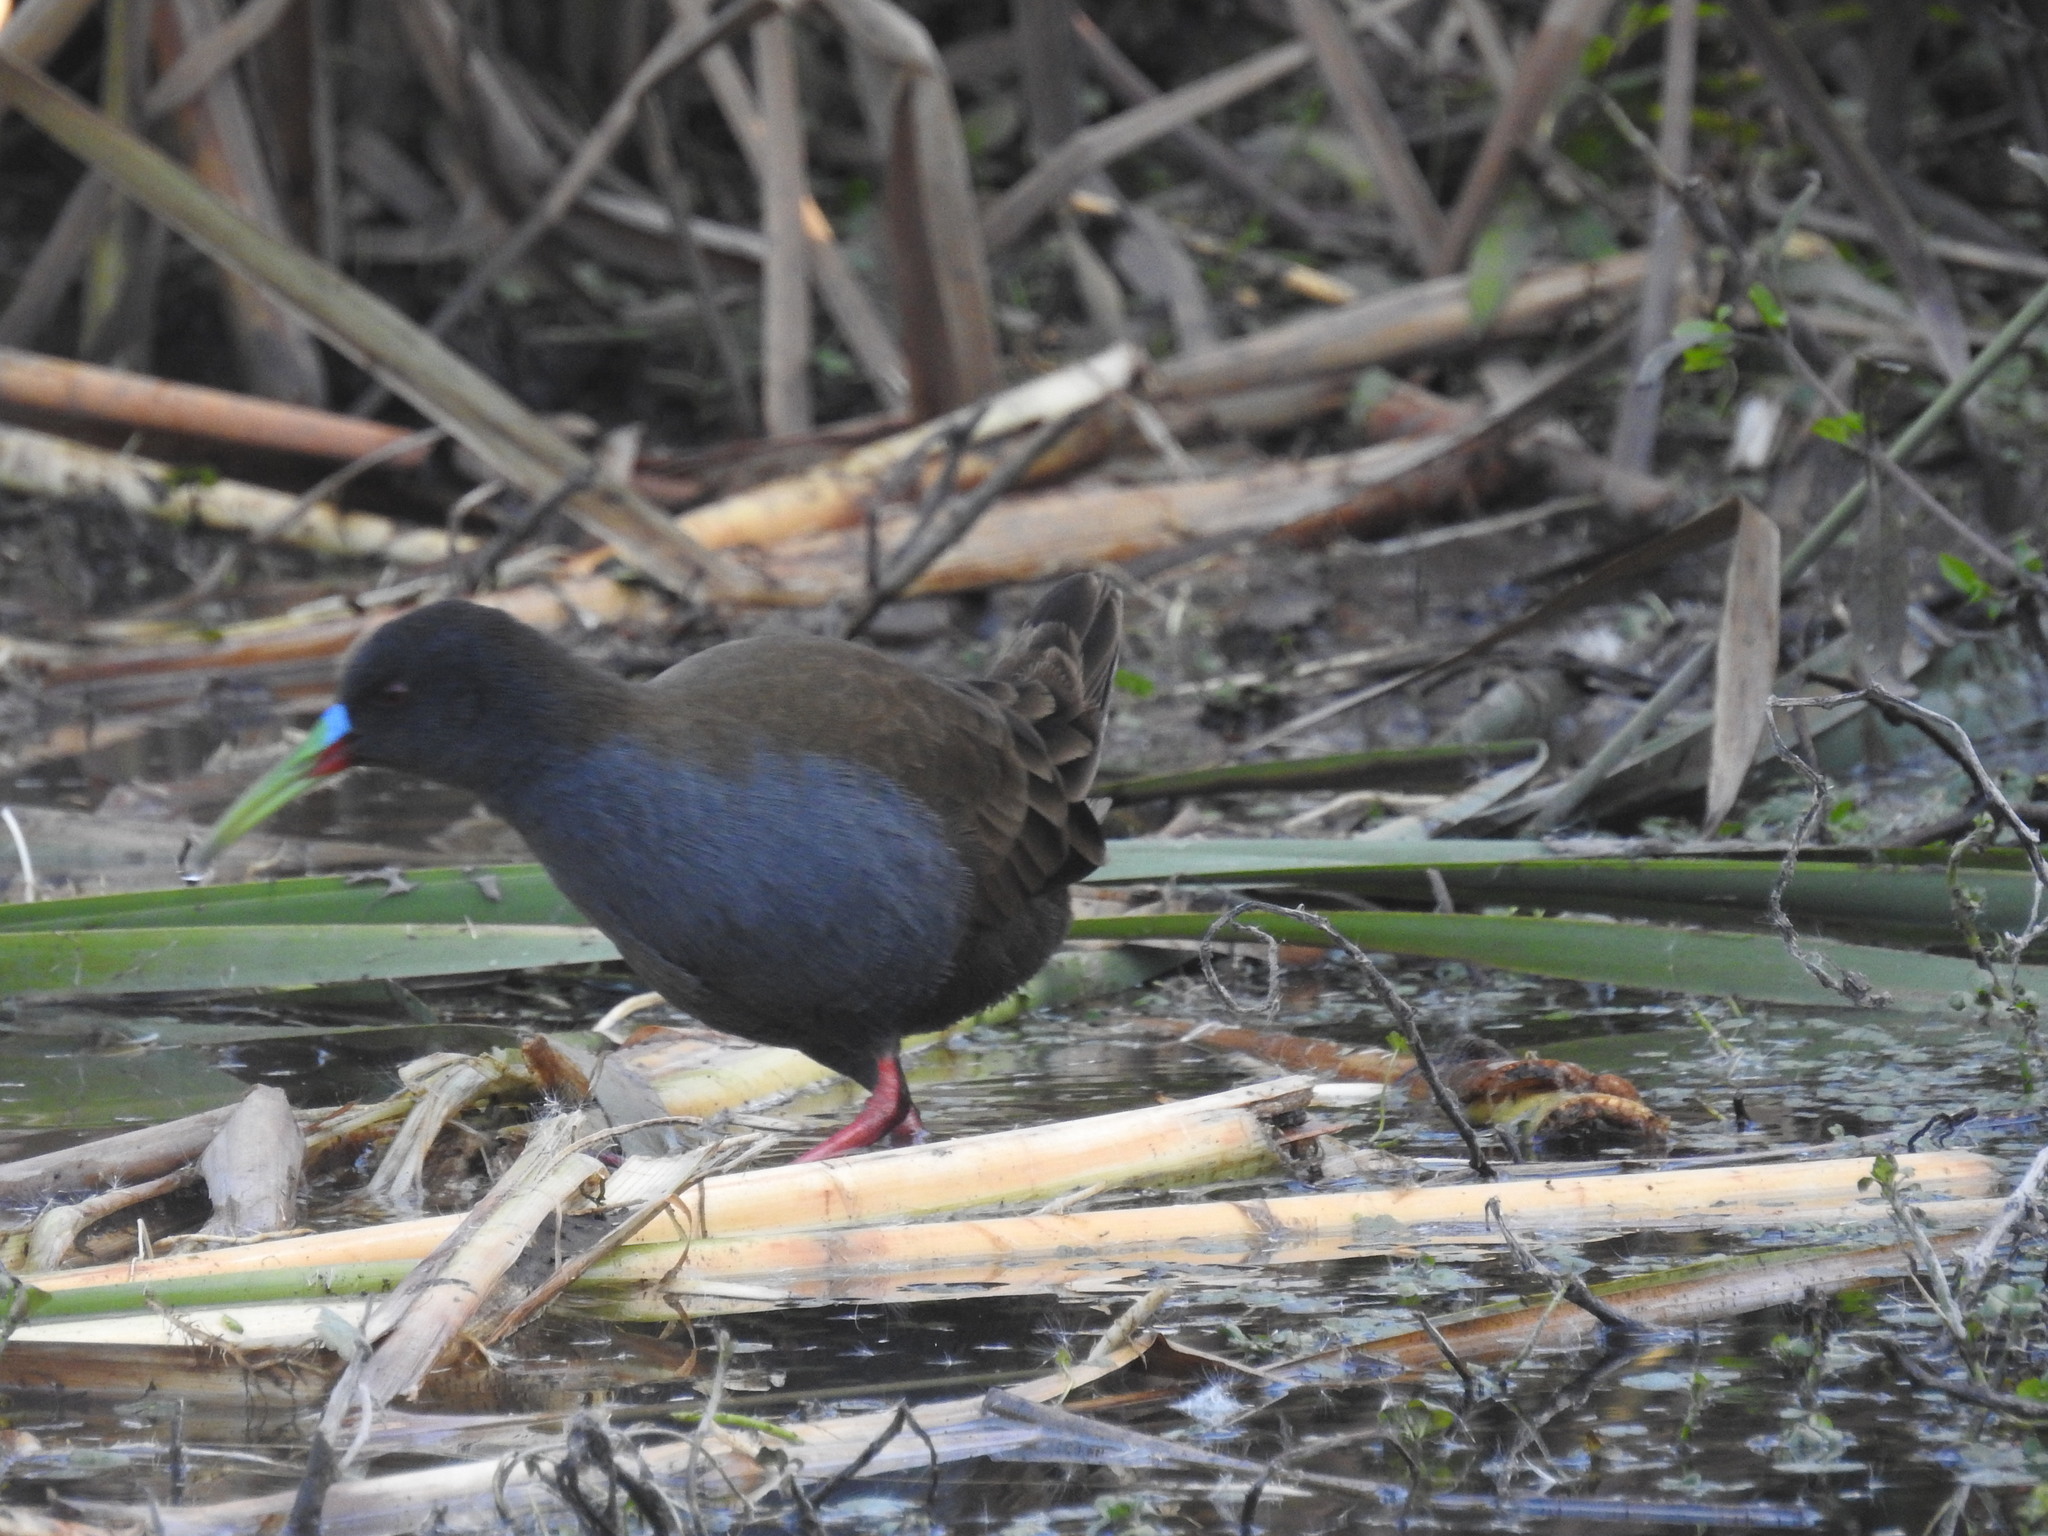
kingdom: Animalia
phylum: Chordata
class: Aves
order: Gruiformes
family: Rallidae
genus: Pardirallus
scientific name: Pardirallus sanguinolentus
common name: Plumbeous rail
